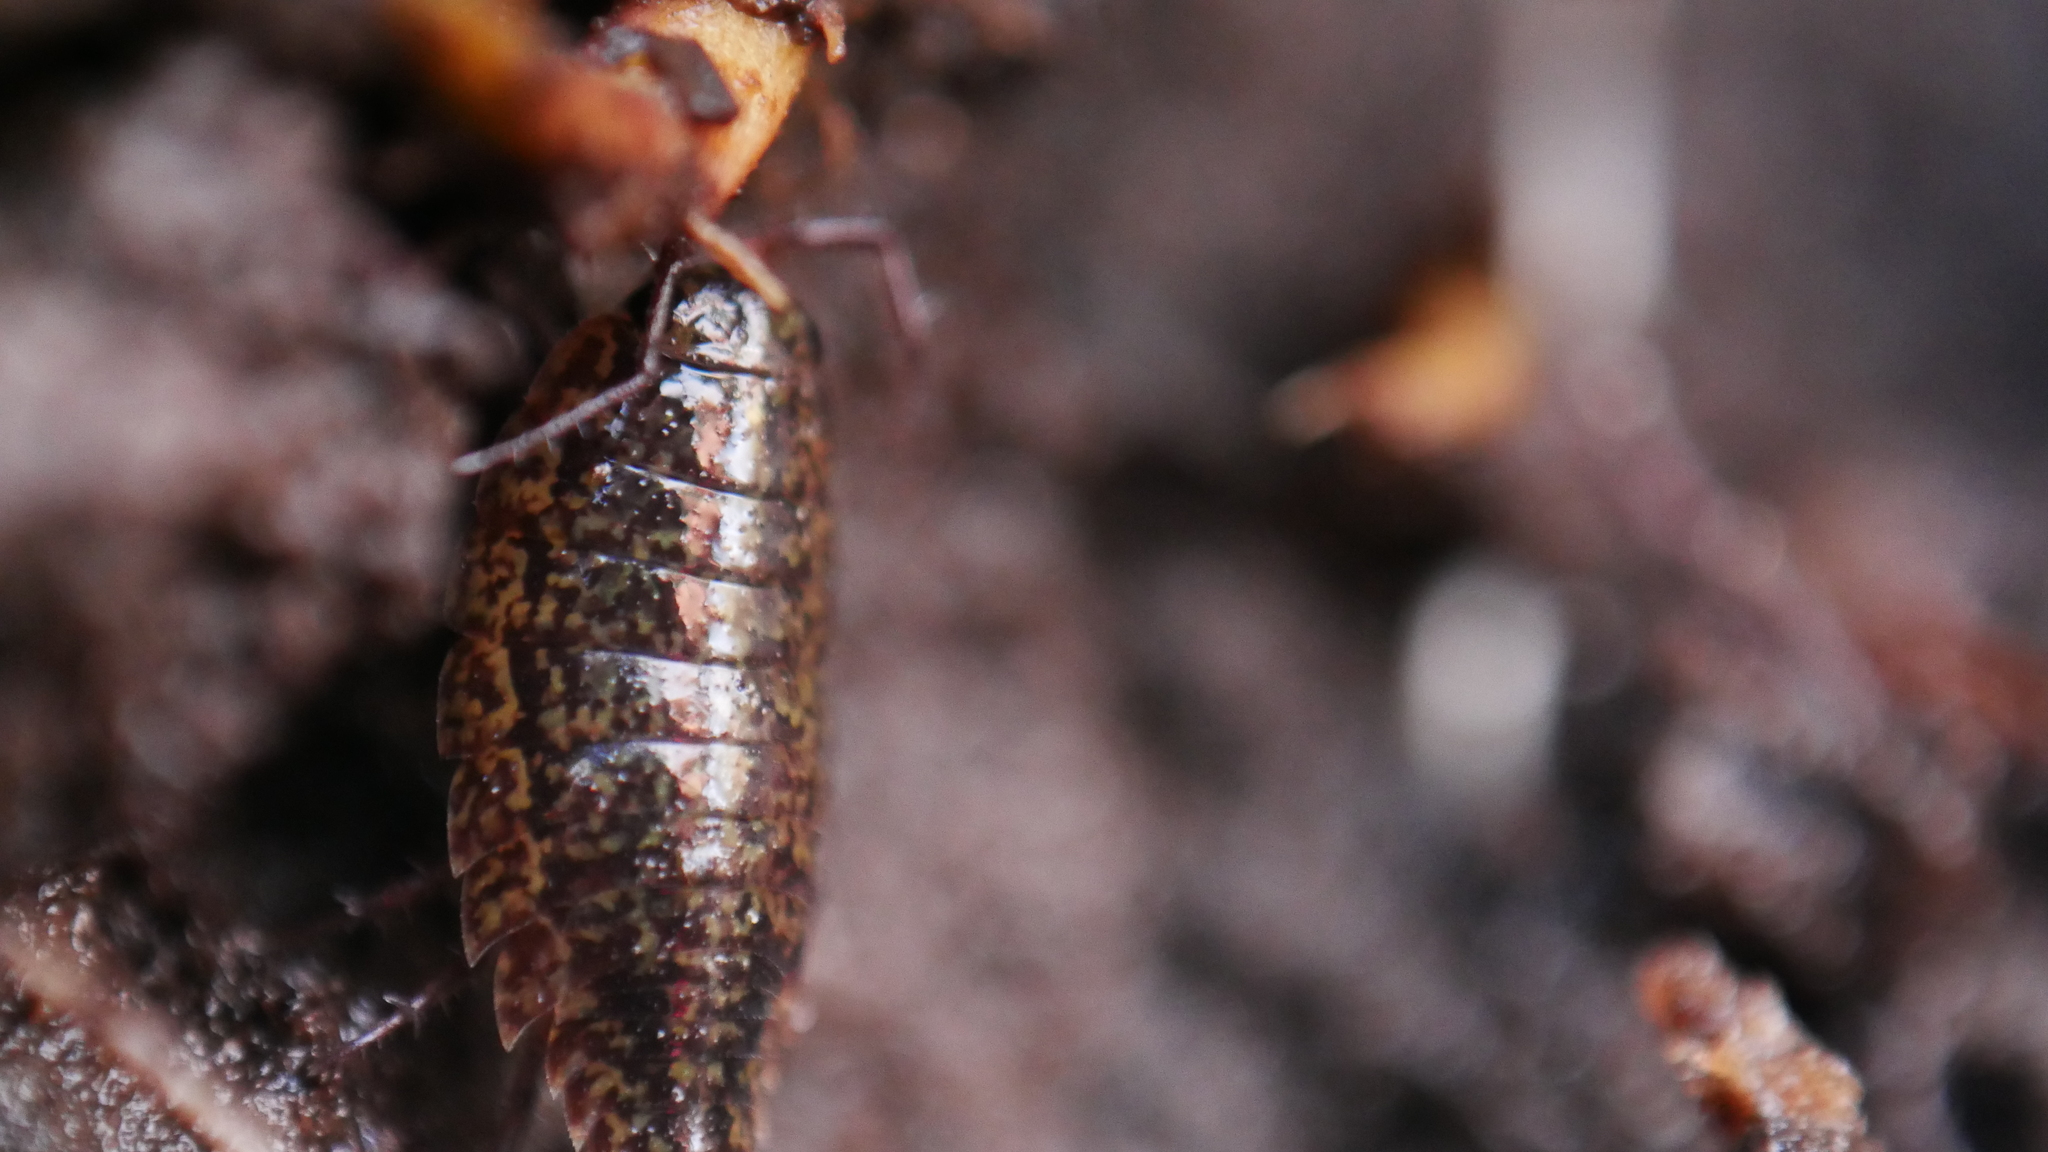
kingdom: Animalia
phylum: Arthropoda
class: Malacostraca
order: Isopoda
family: Ligiidae
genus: Ligidium
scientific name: Ligidium elrodii
